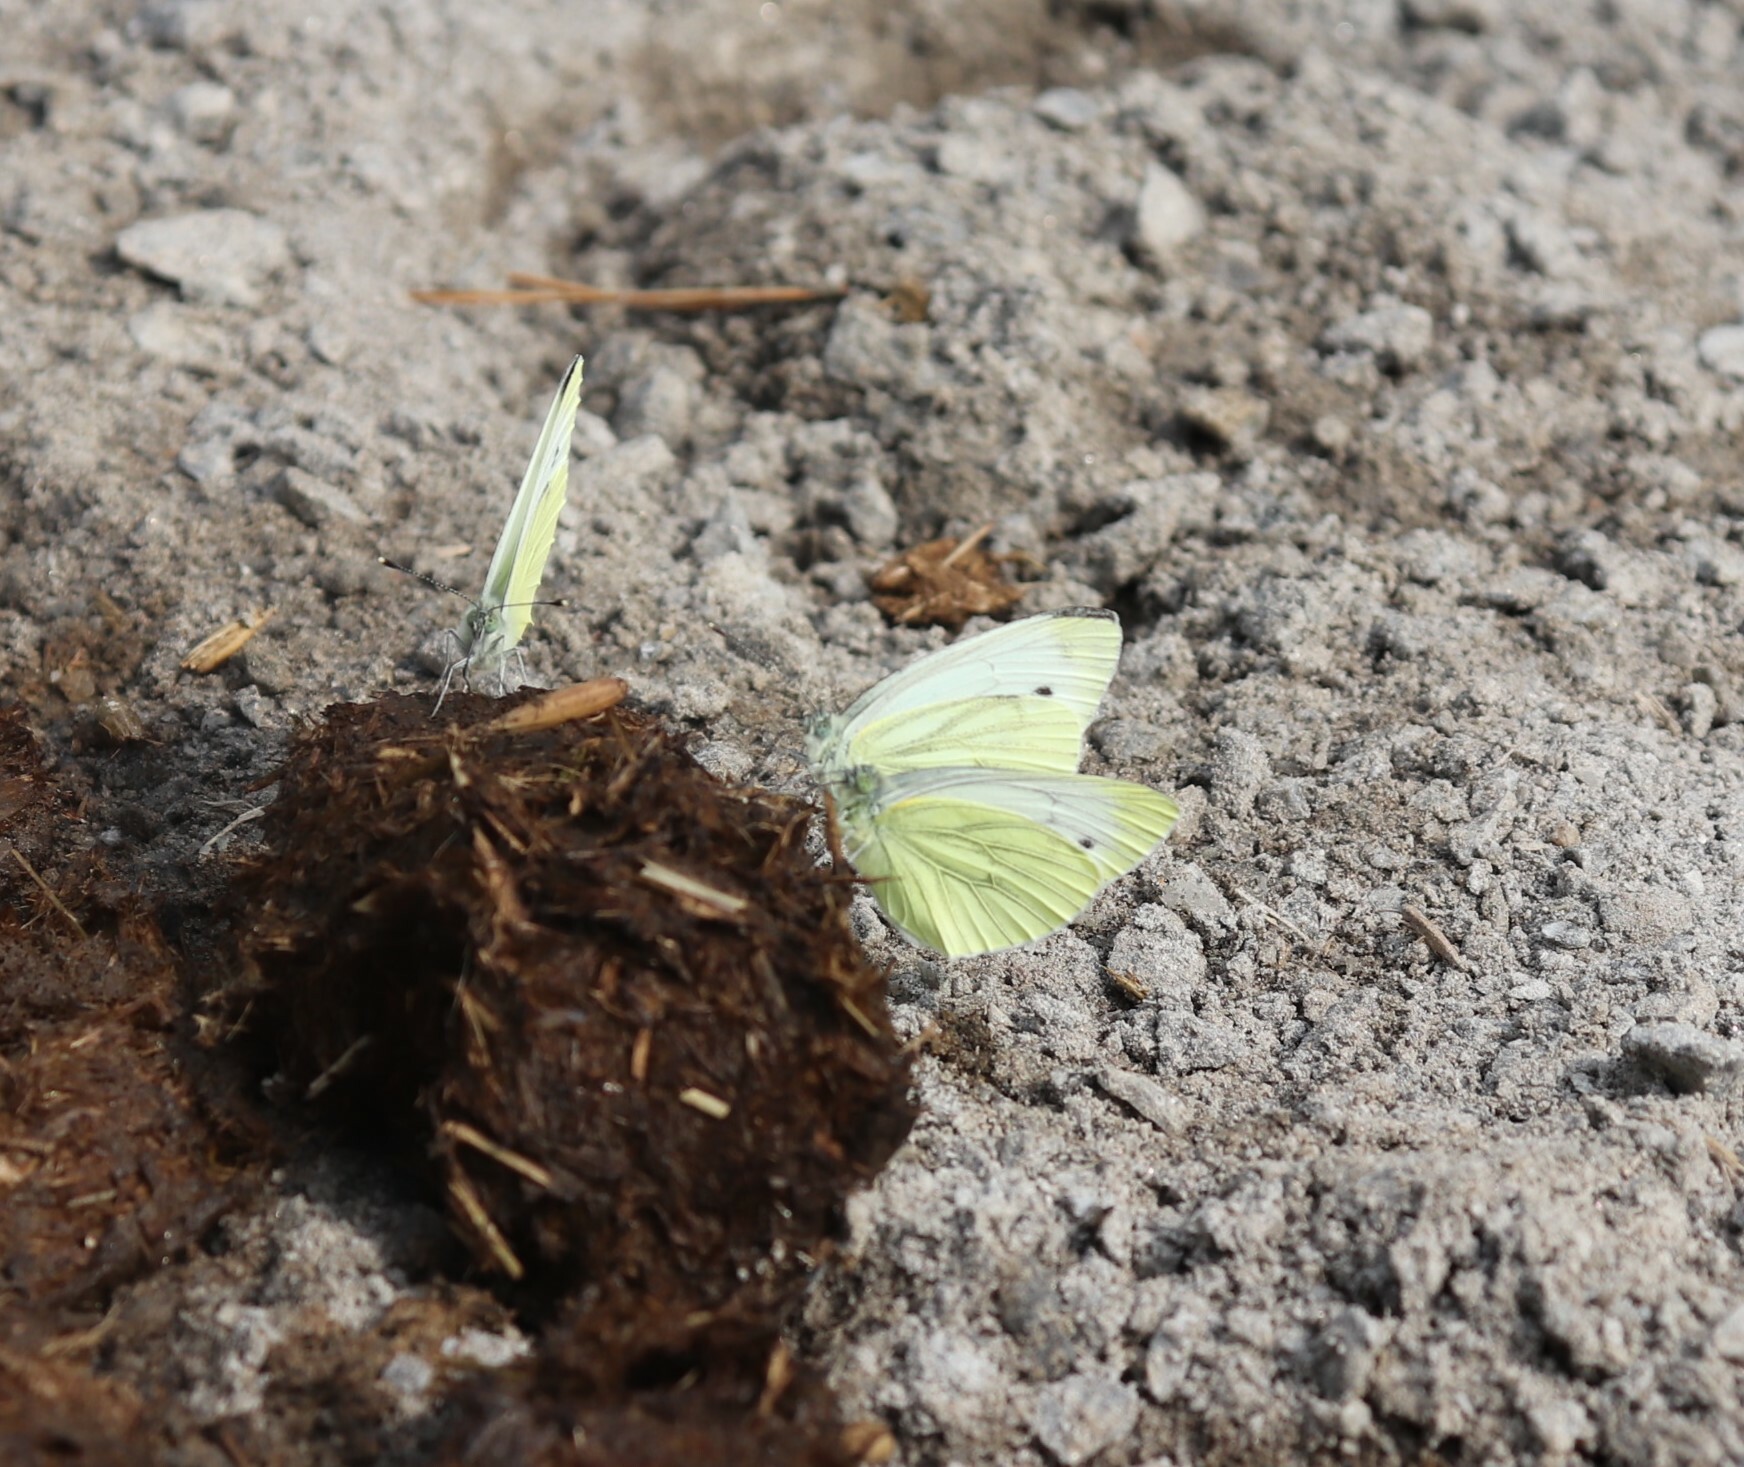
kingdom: Animalia
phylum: Arthropoda
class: Insecta
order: Lepidoptera
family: Pieridae
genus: Pieris
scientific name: Pieris napi
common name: Green-veined white
